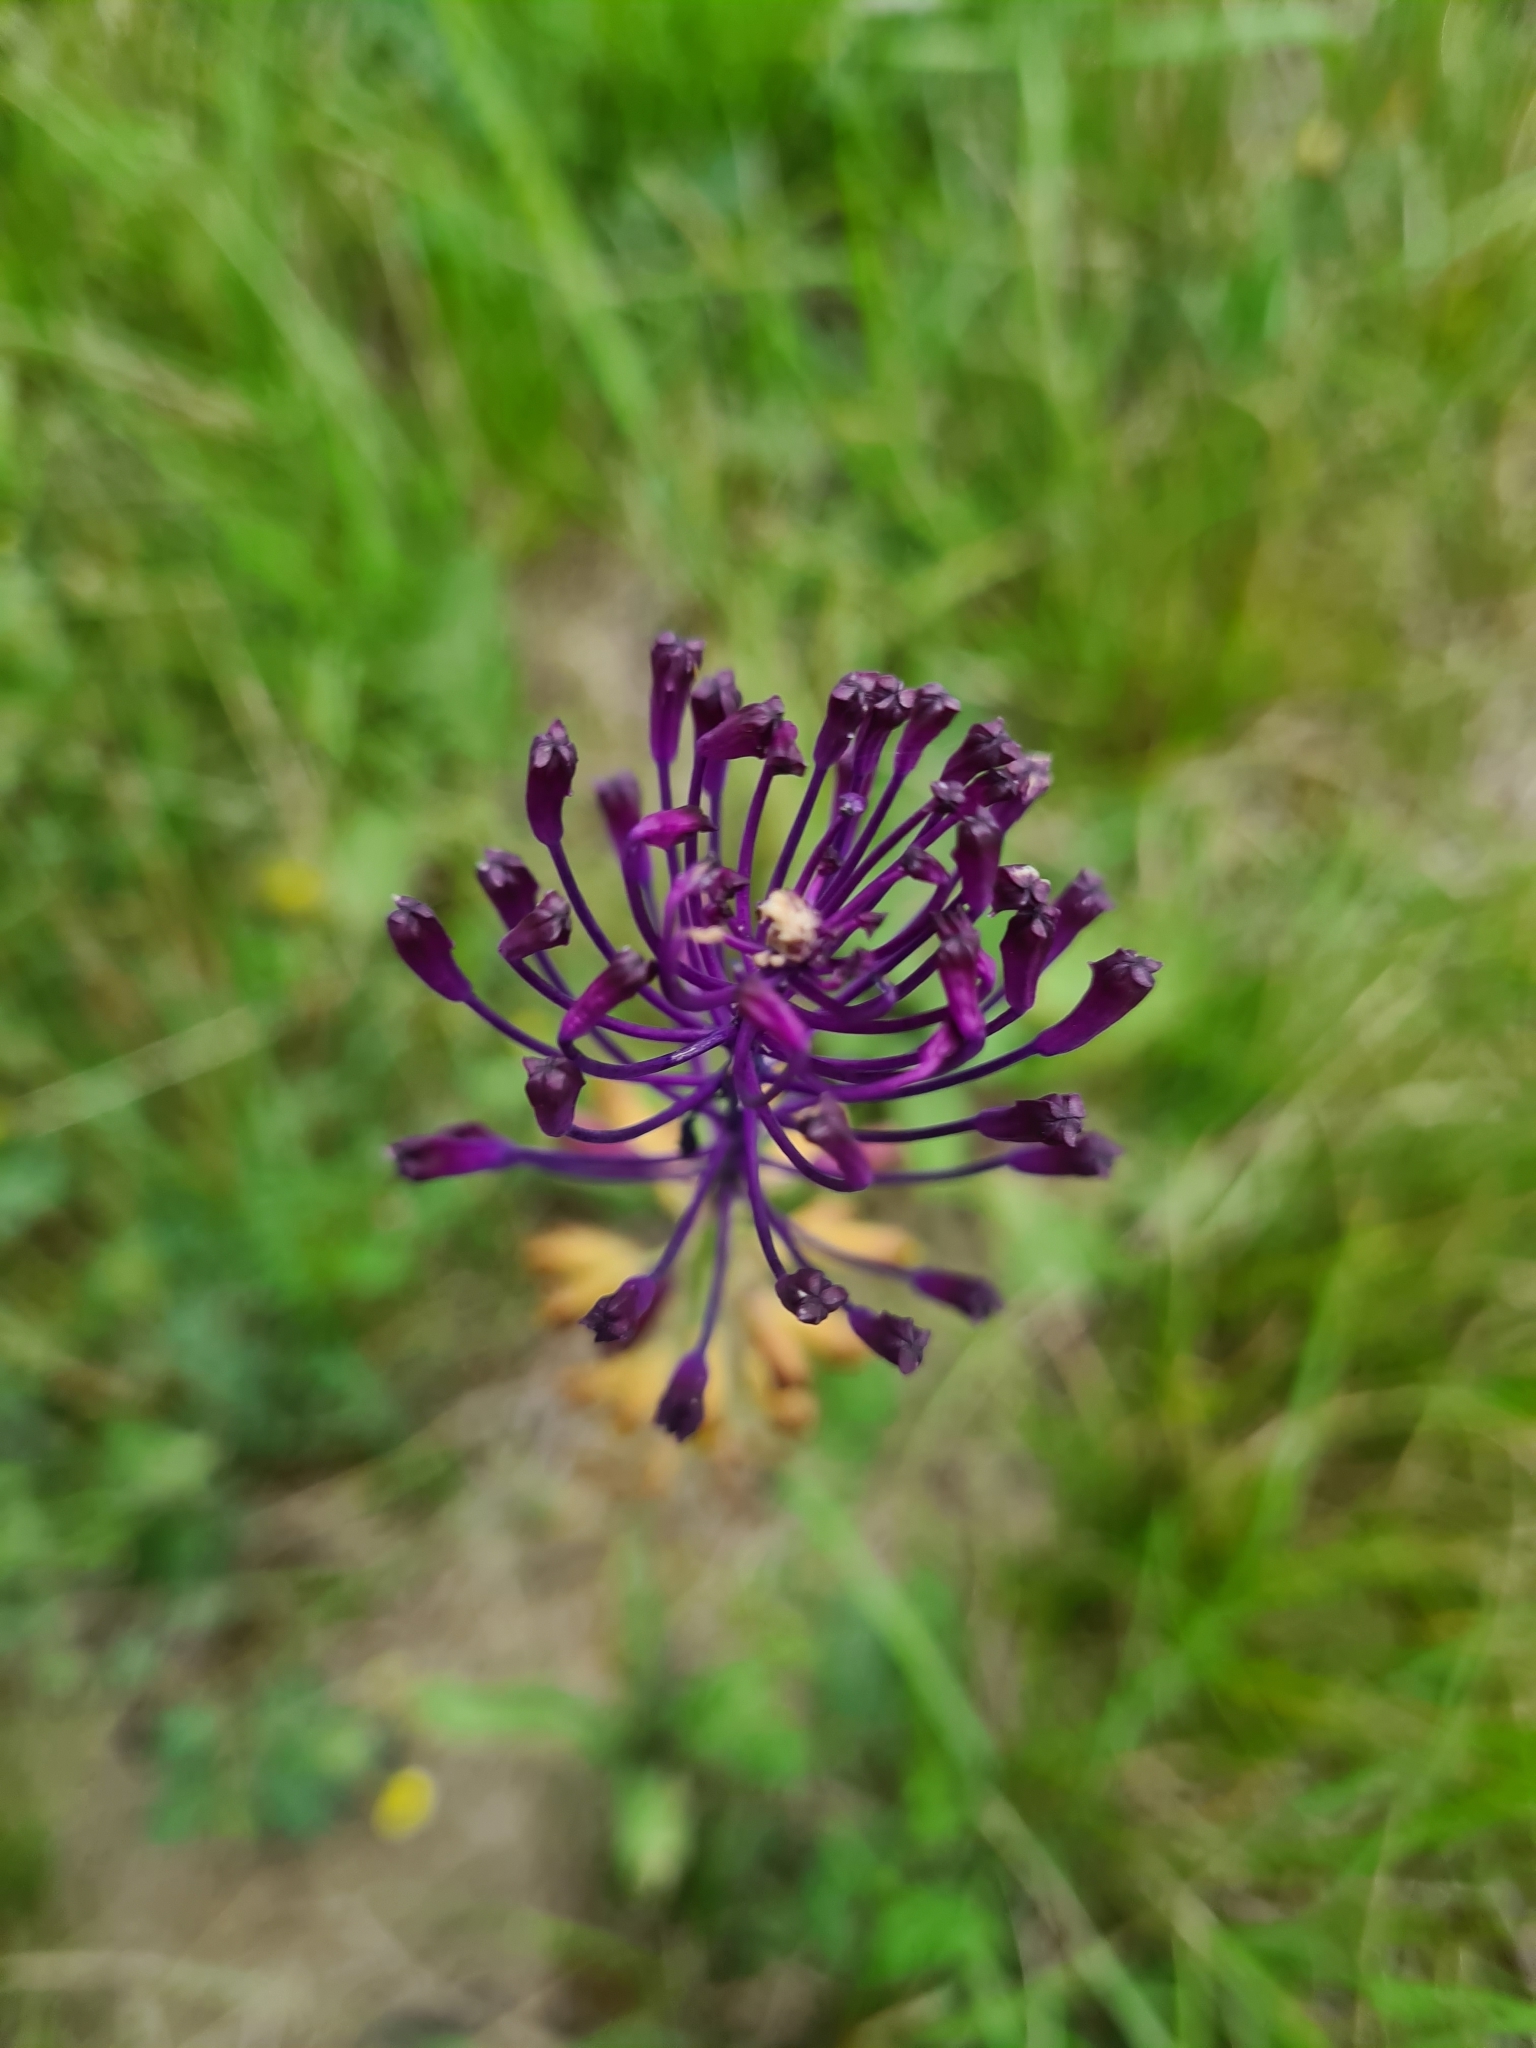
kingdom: Plantae
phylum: Tracheophyta
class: Liliopsida
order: Asparagales
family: Asparagaceae
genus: Muscari
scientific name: Muscari comosum
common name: Tassel hyacinth
